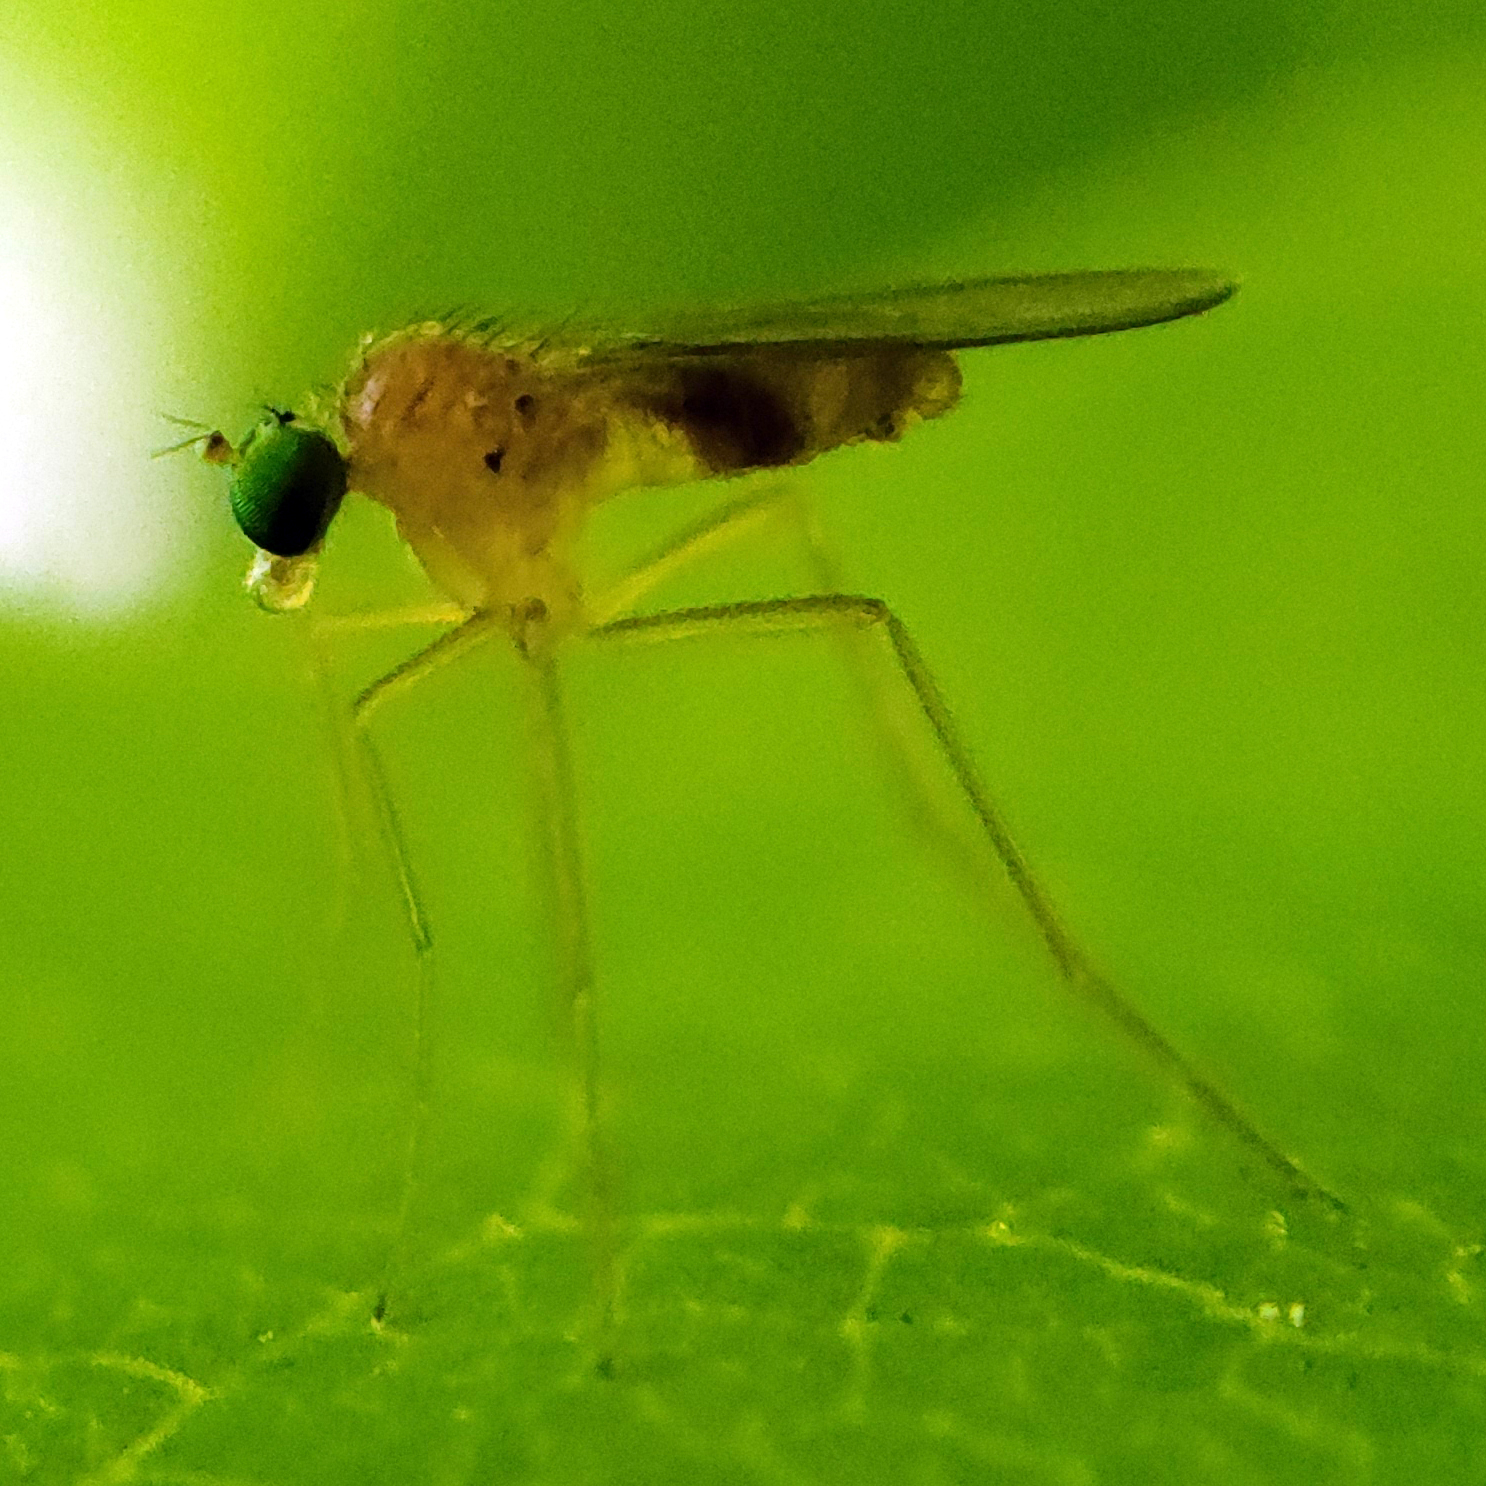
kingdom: Animalia
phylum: Arthropoda
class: Insecta
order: Diptera
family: Dolichopodidae
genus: Xanthochlorus
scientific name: Xanthochlorus helvinus
